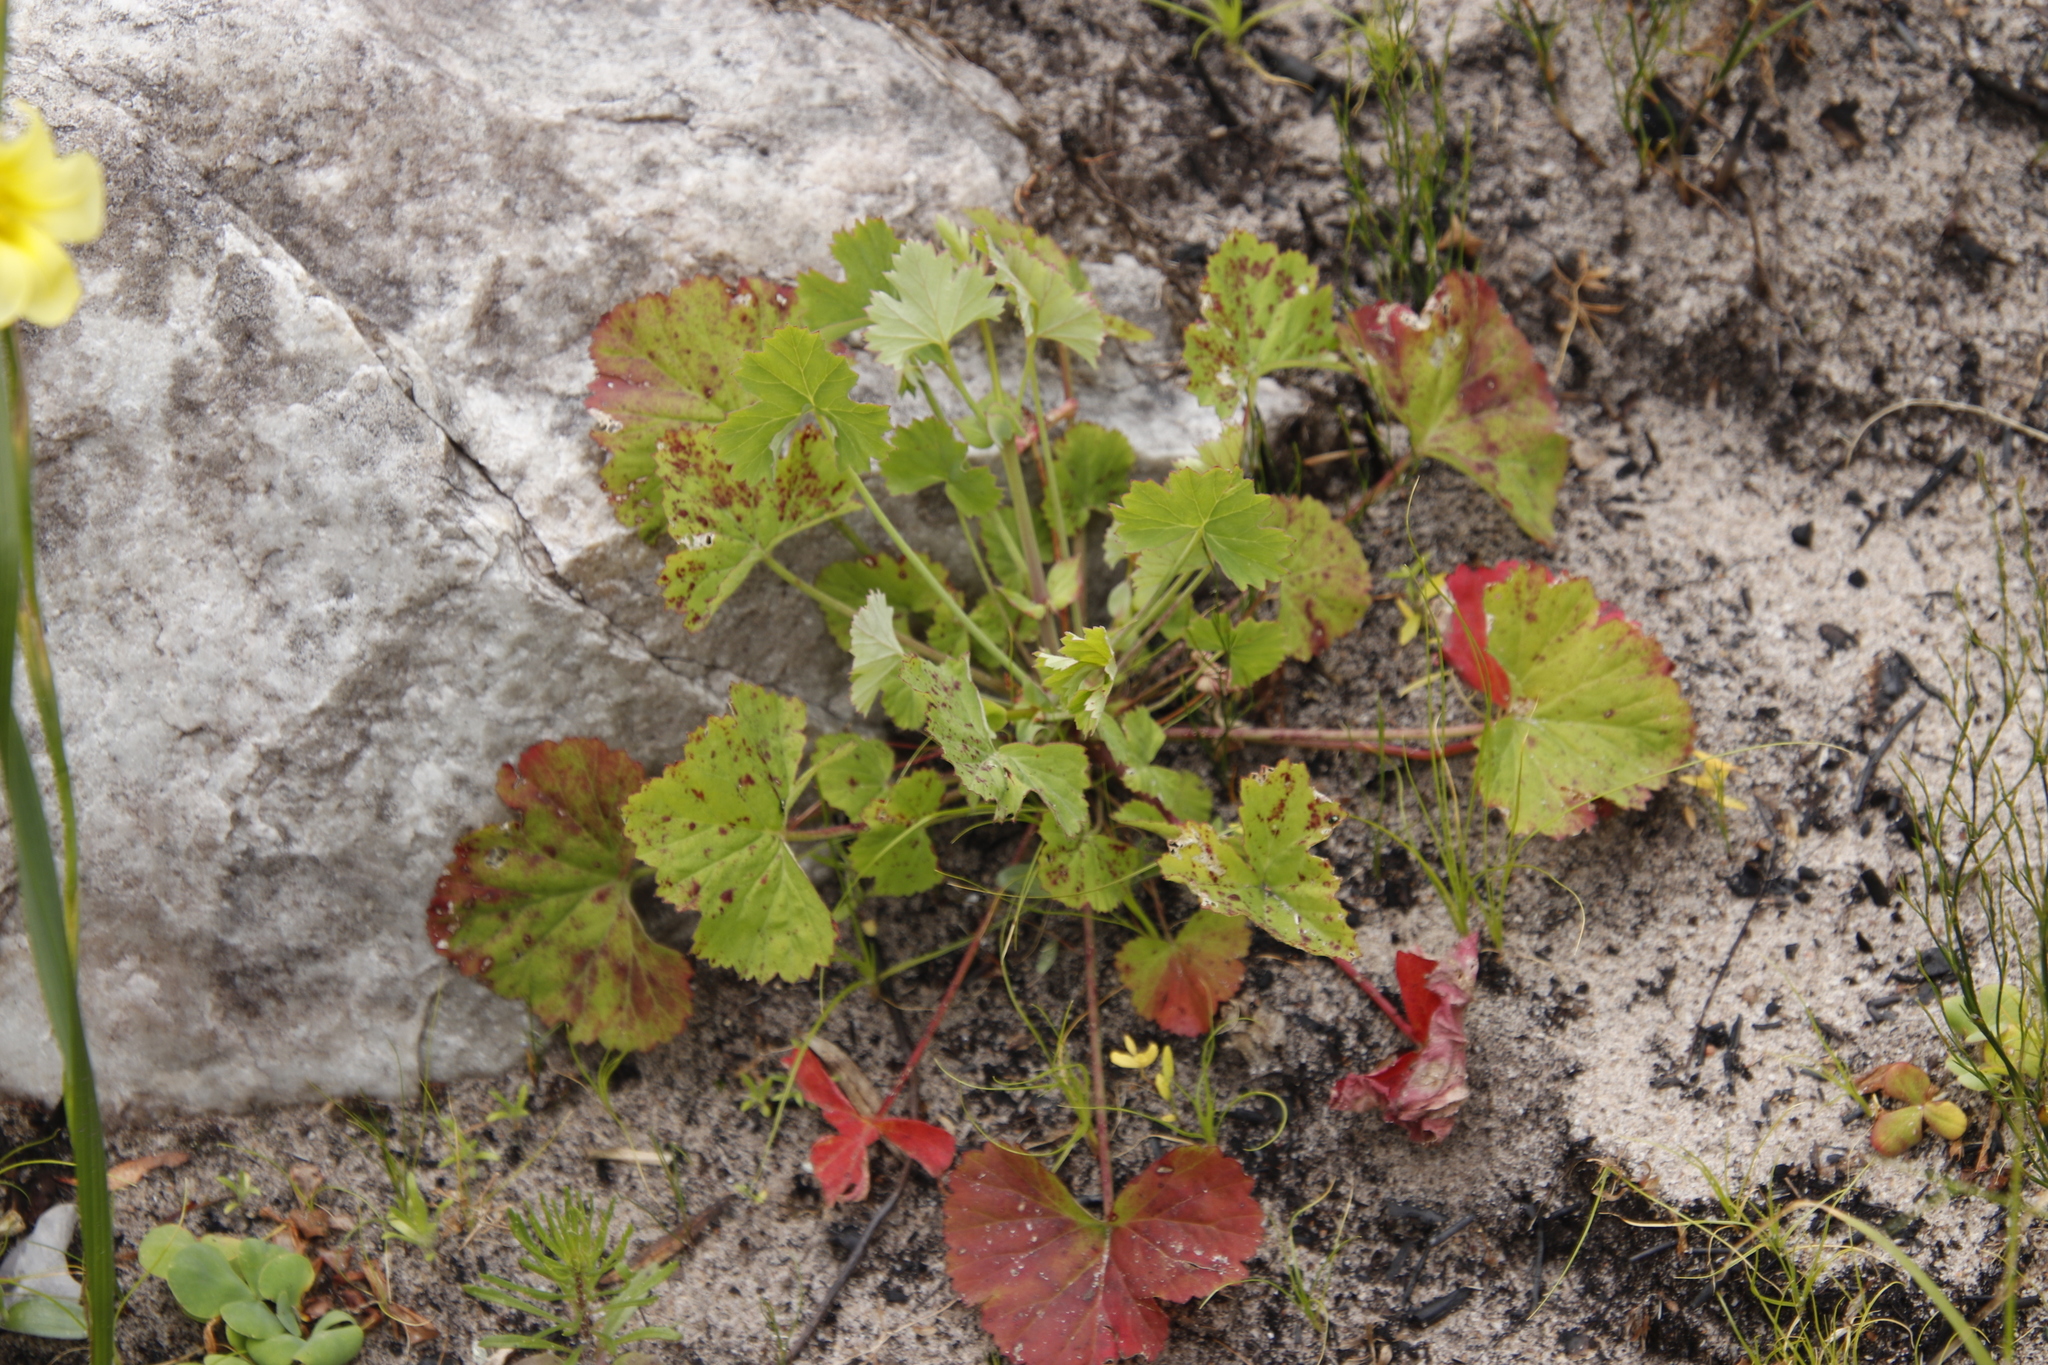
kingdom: Plantae
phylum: Tracheophyta
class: Magnoliopsida
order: Geraniales
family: Geraniaceae
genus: Pelargonium
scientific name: Pelargonium patulum
